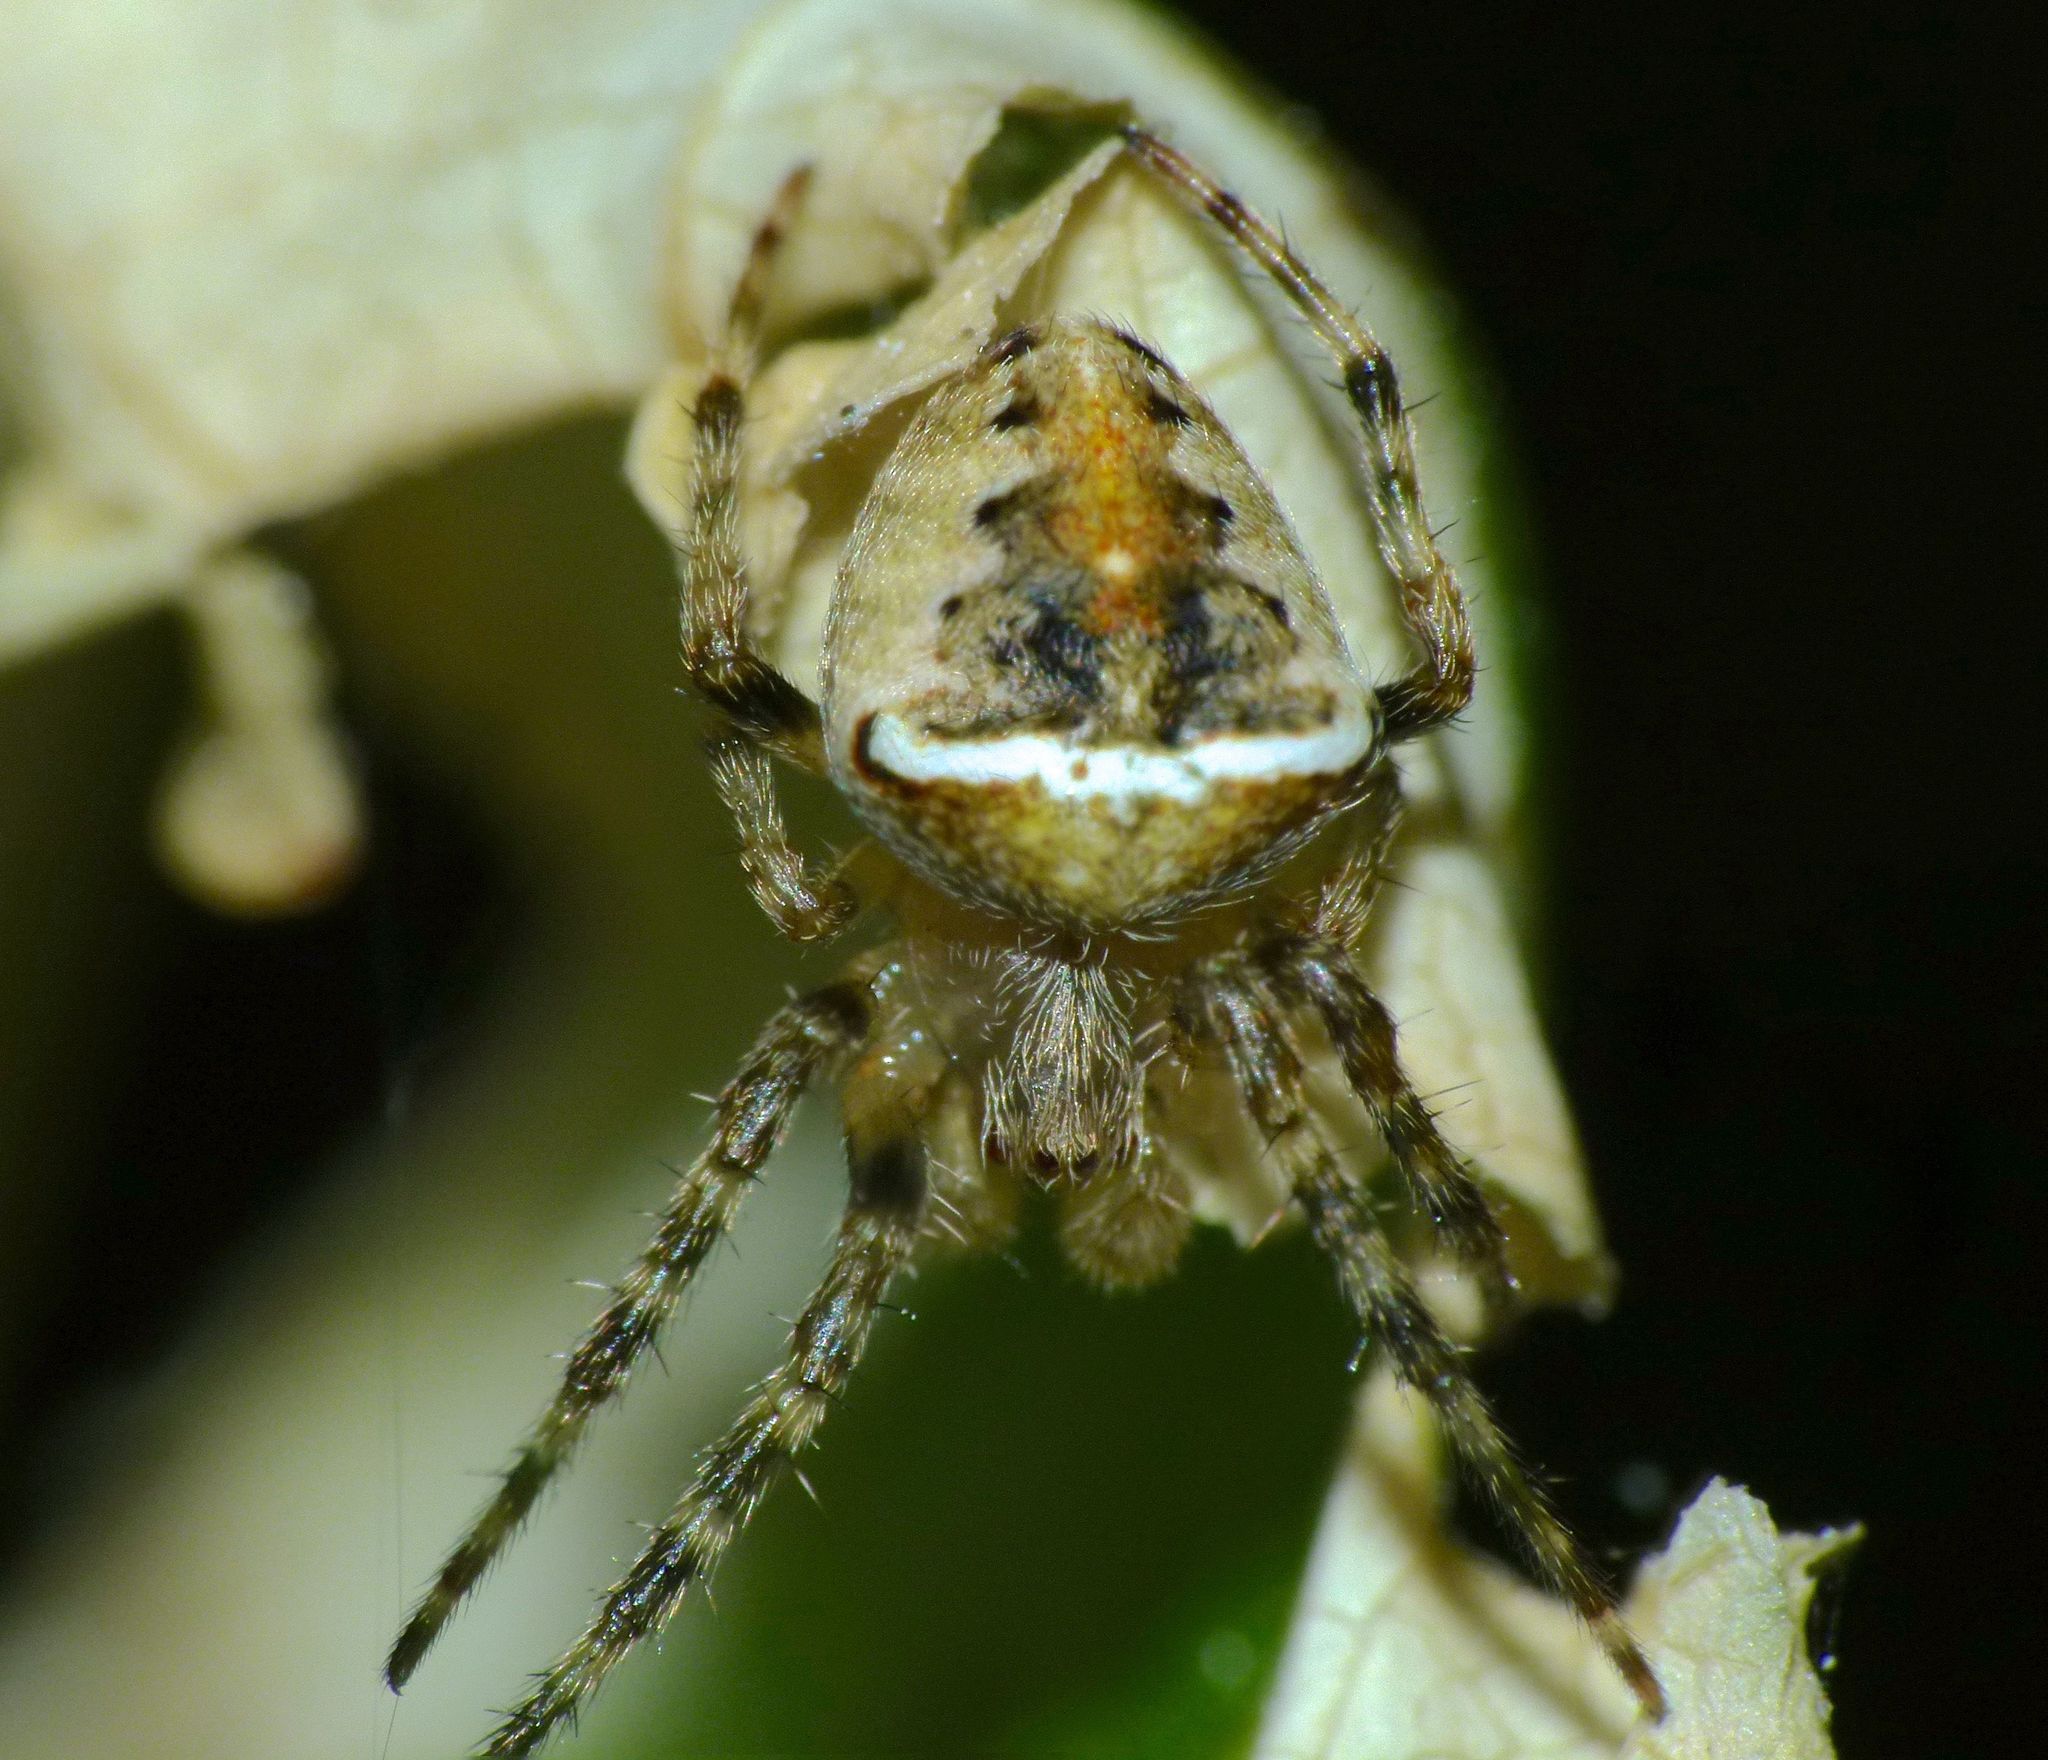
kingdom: Animalia
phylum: Arthropoda
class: Arachnida
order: Araneae
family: Araneidae
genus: Zealaranea
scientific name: Zealaranea crassa
